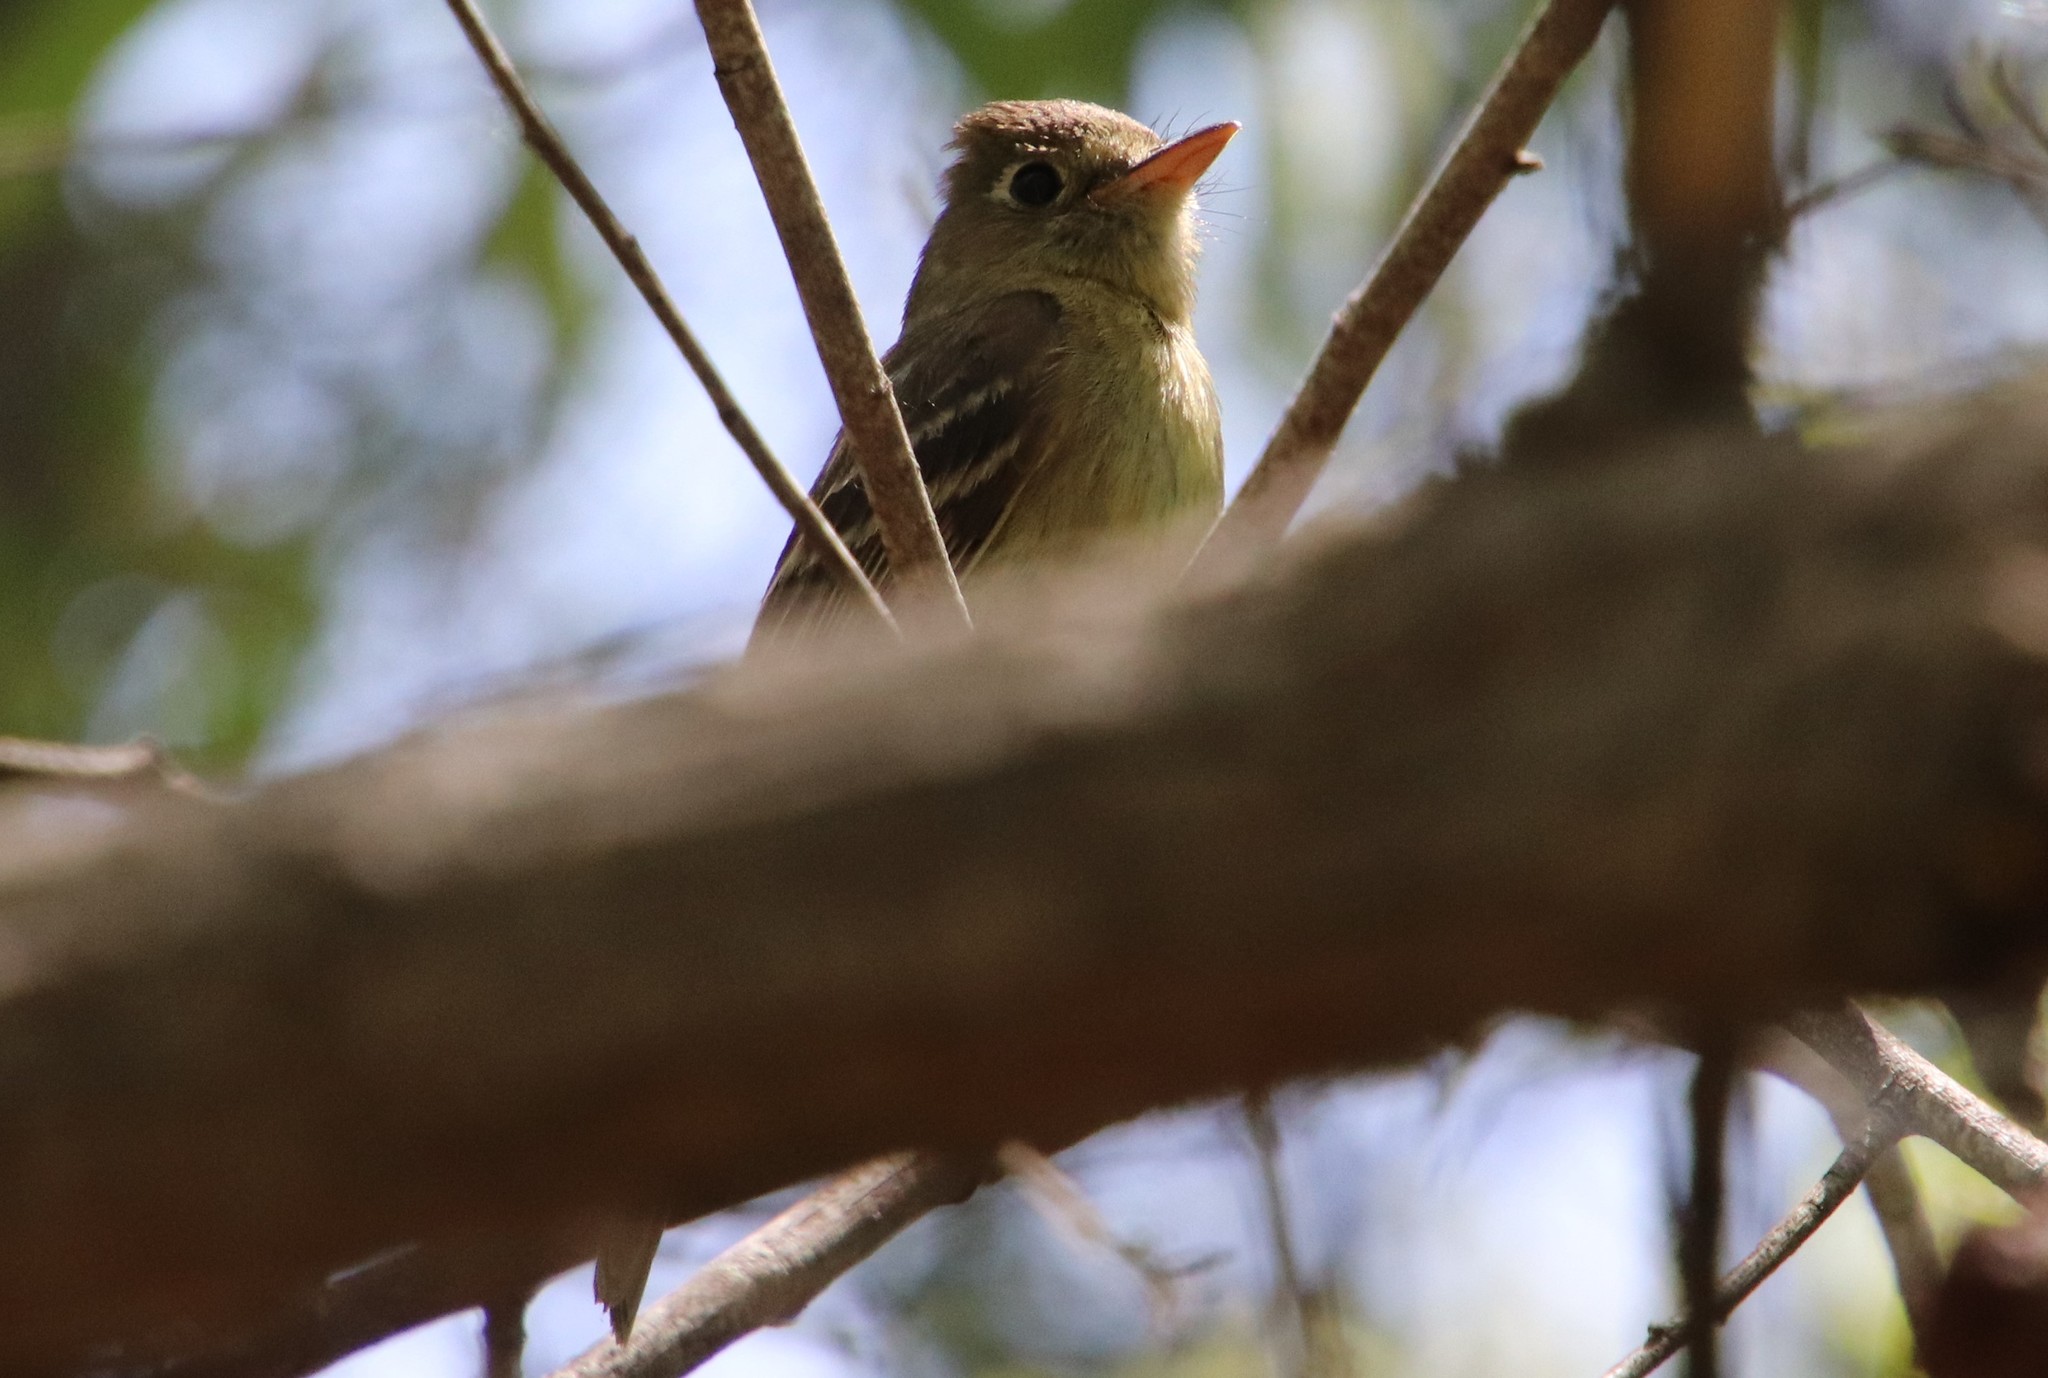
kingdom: Animalia
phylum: Chordata
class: Aves
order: Passeriformes
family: Tyrannidae
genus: Empidonax
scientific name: Empidonax difficilis
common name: Pacific-slope flycatcher
